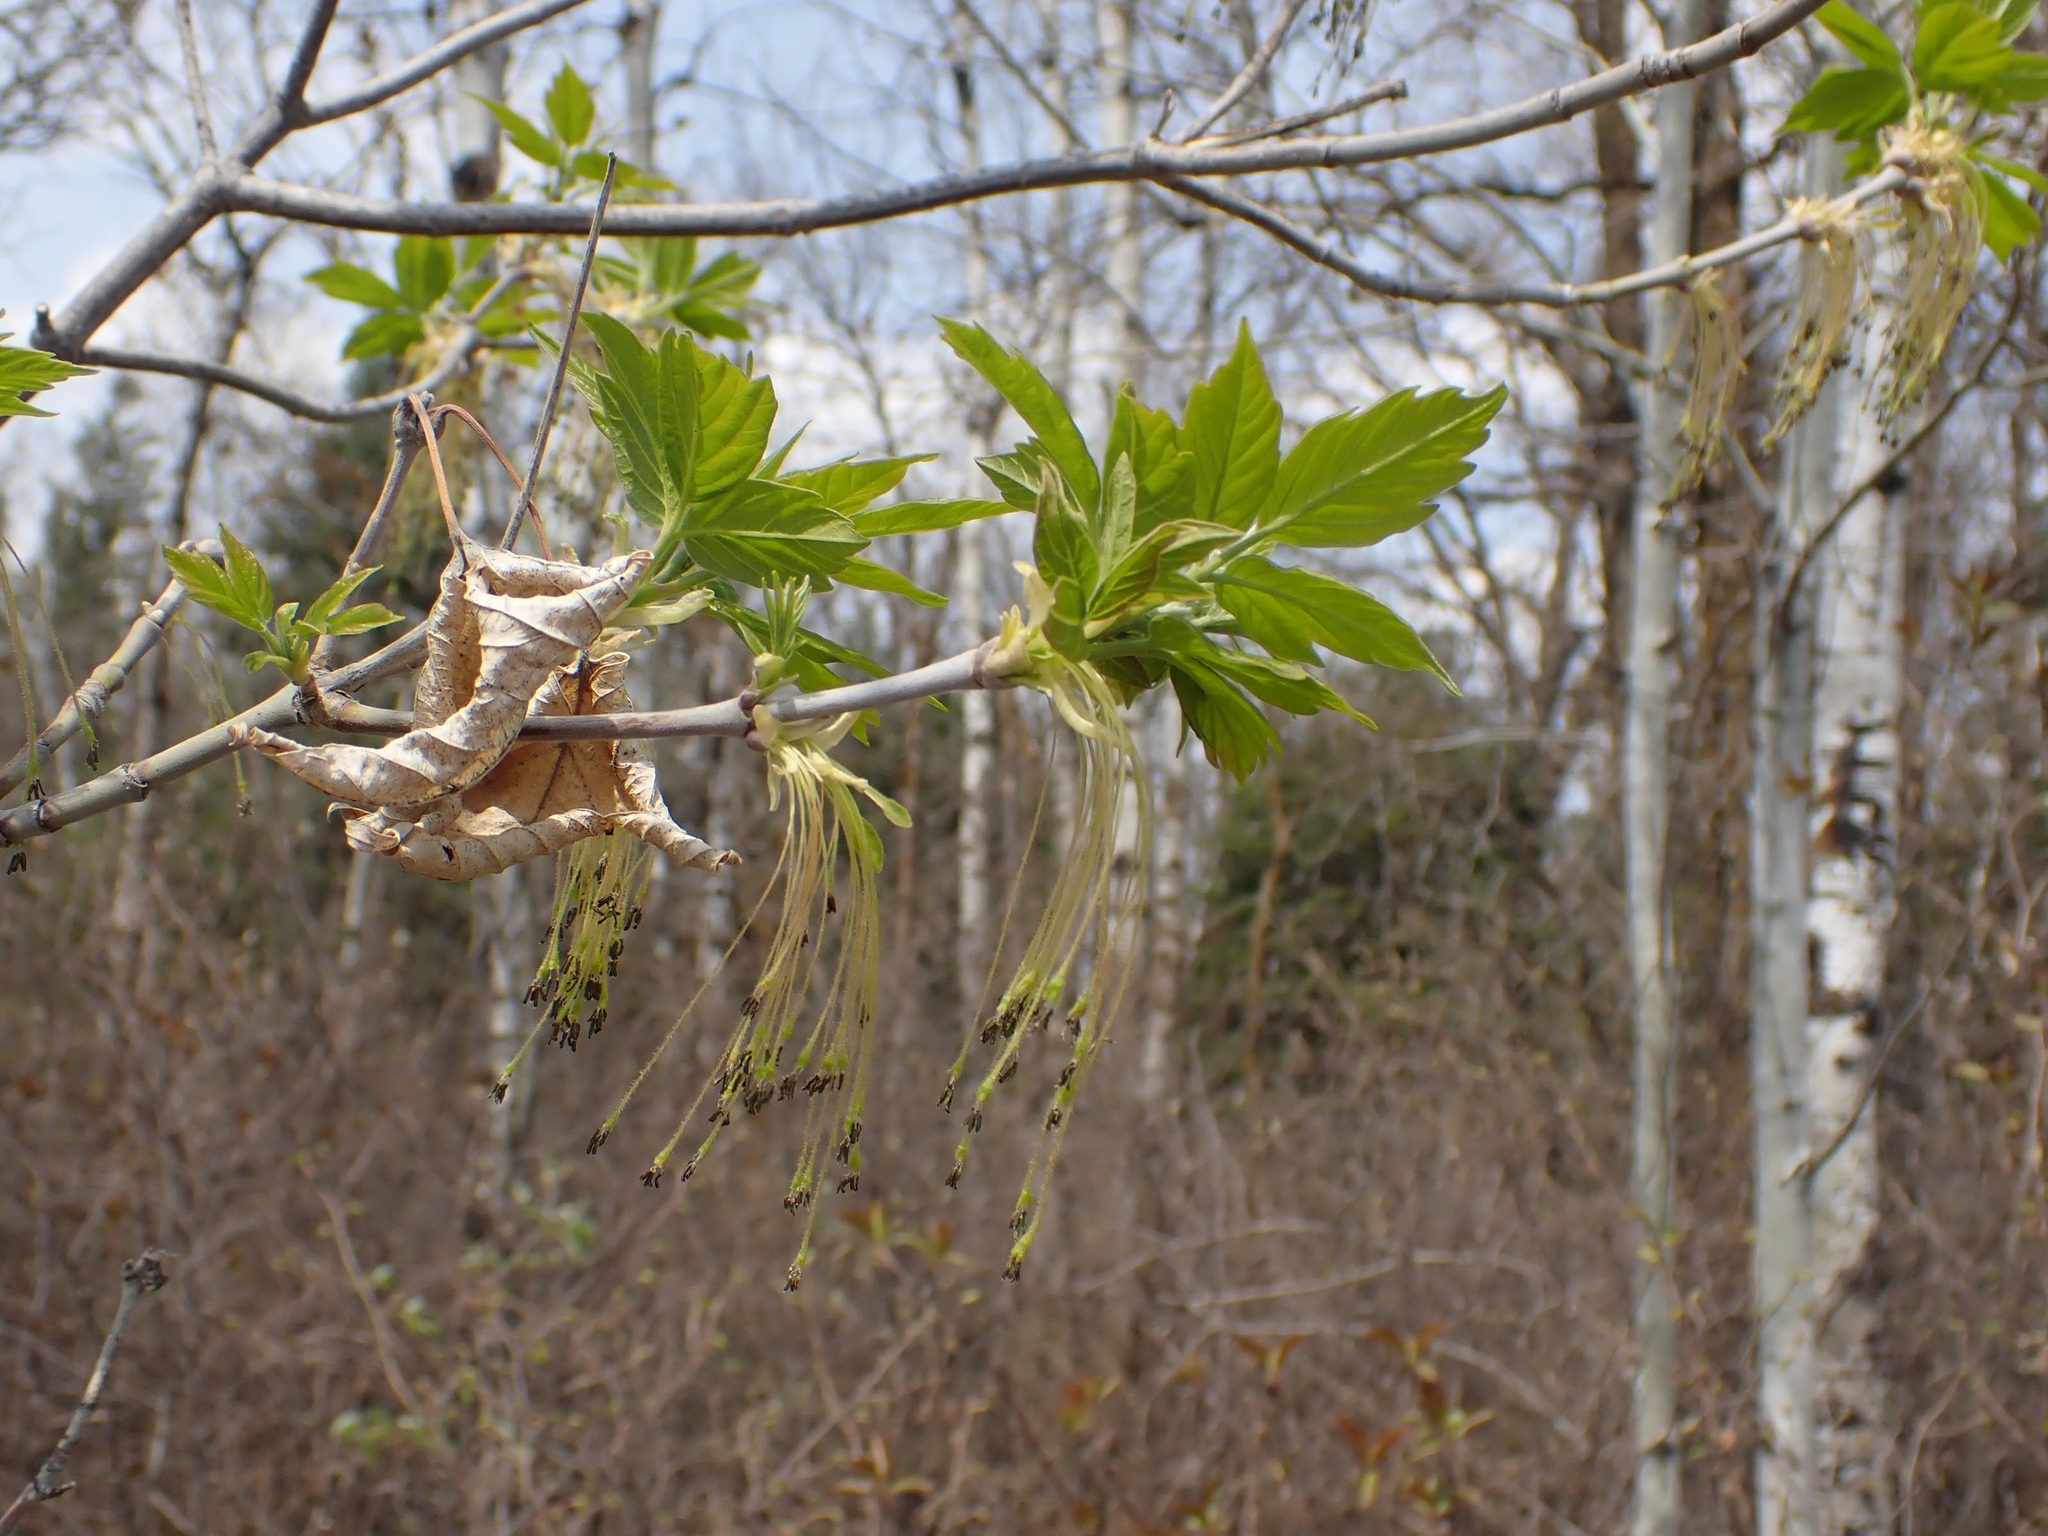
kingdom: Plantae
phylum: Tracheophyta
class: Magnoliopsida
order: Sapindales
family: Sapindaceae
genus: Acer
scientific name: Acer negundo
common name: Ashleaf maple
